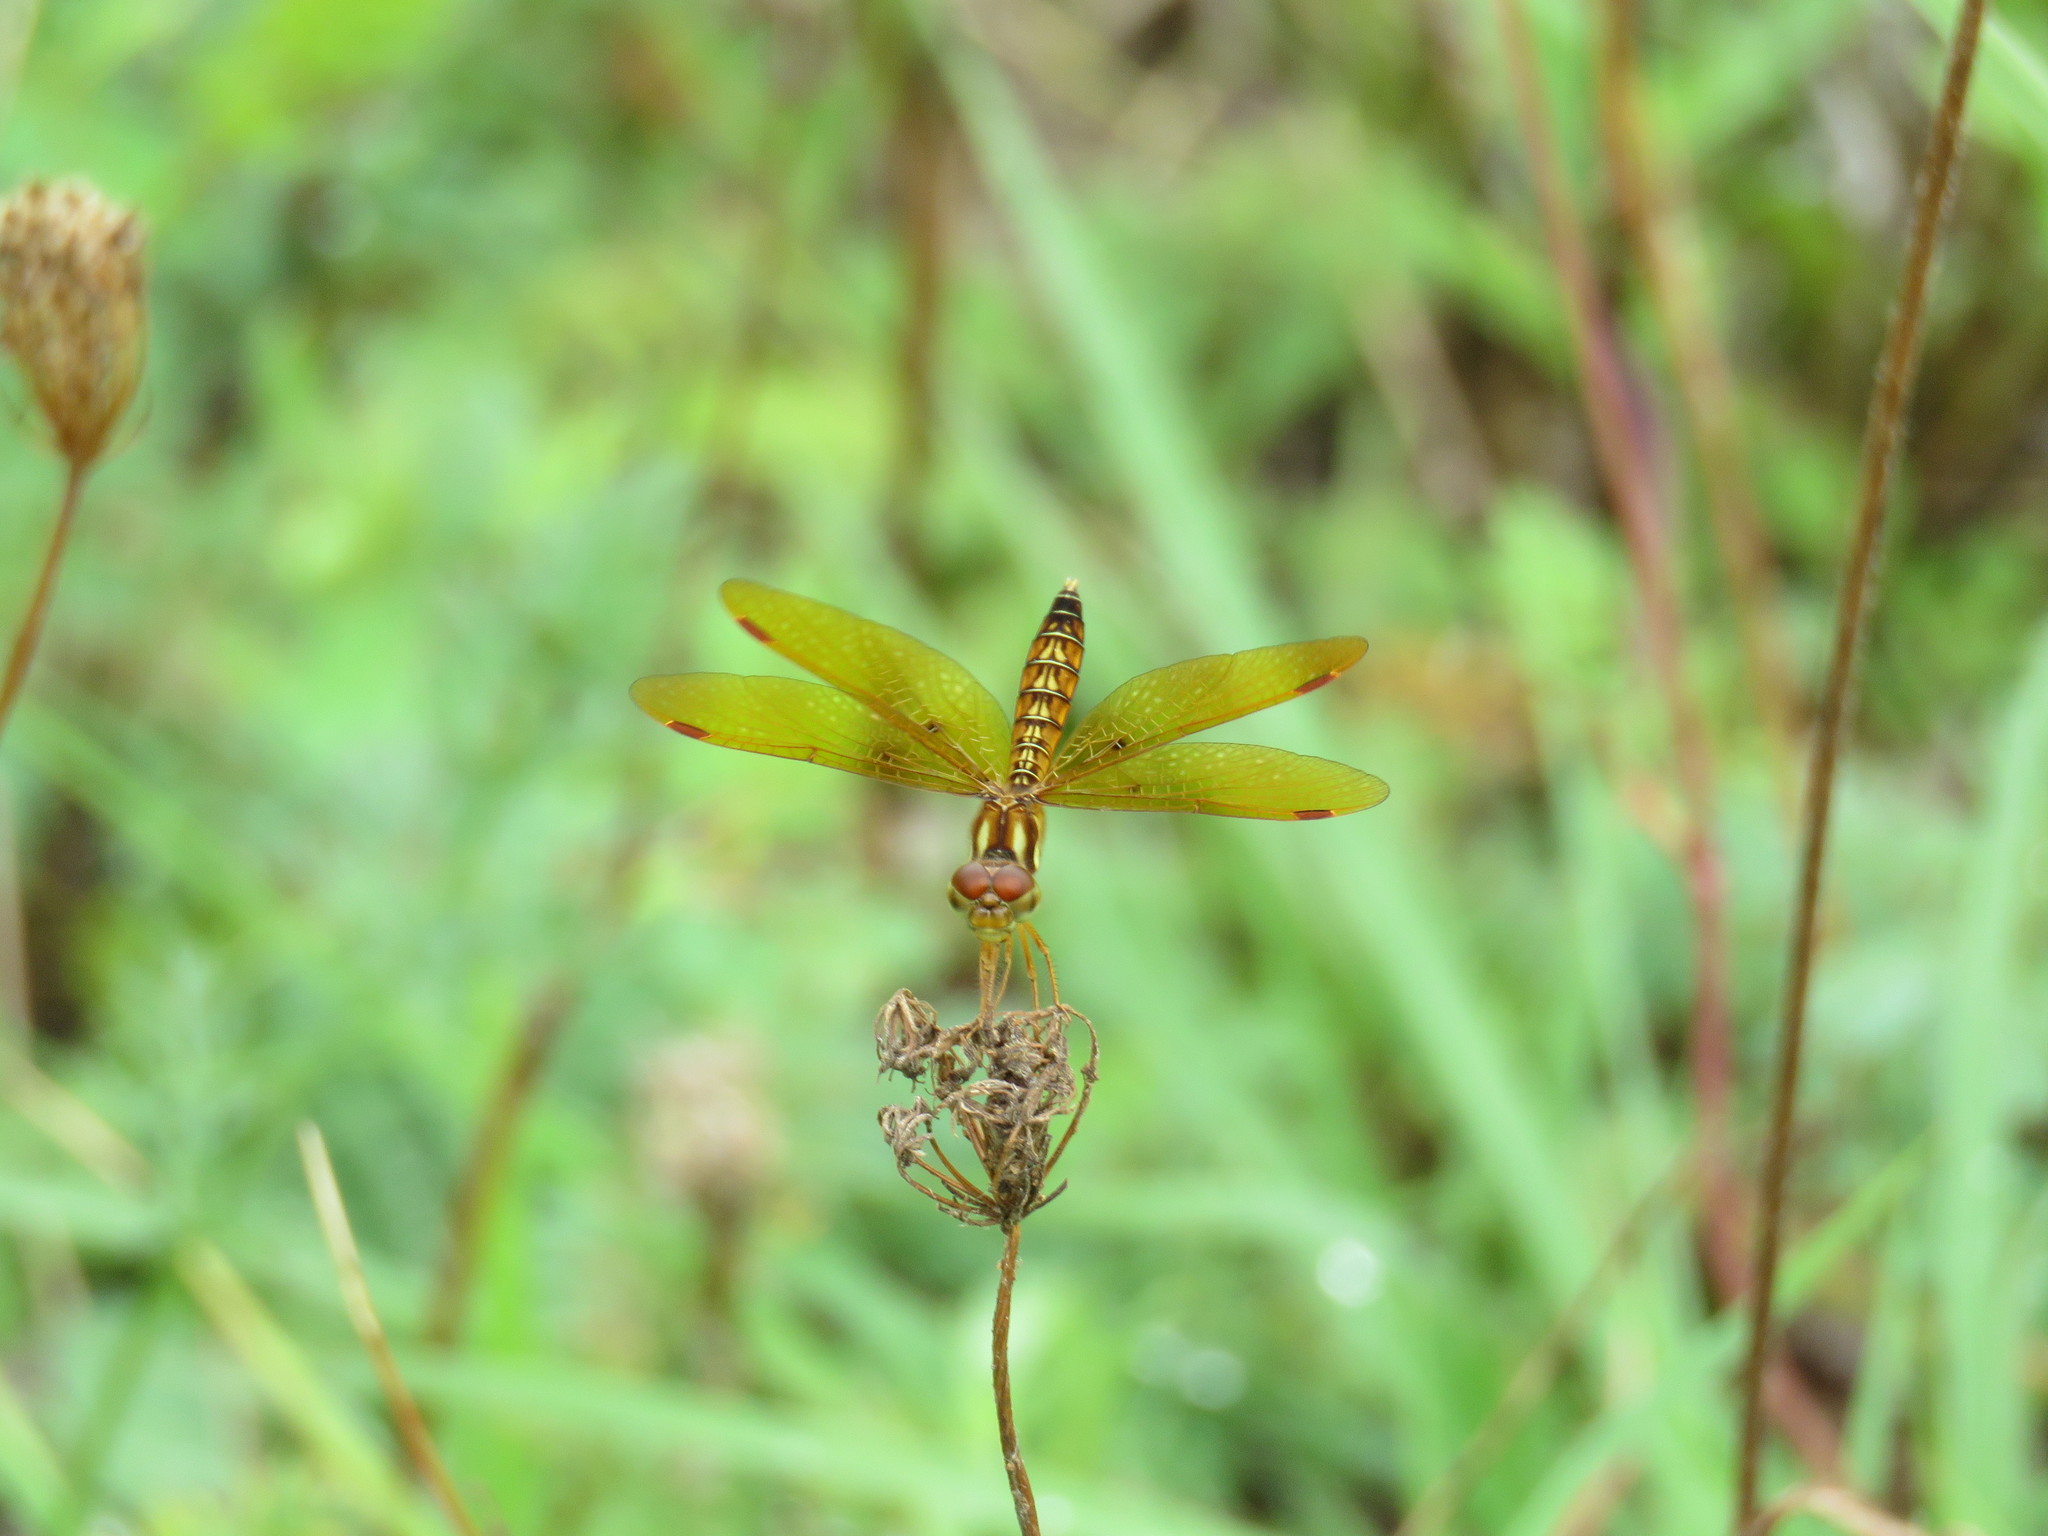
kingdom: Animalia
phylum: Arthropoda
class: Insecta
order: Odonata
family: Libellulidae
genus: Perithemis
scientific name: Perithemis tenera
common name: Eastern amberwing
